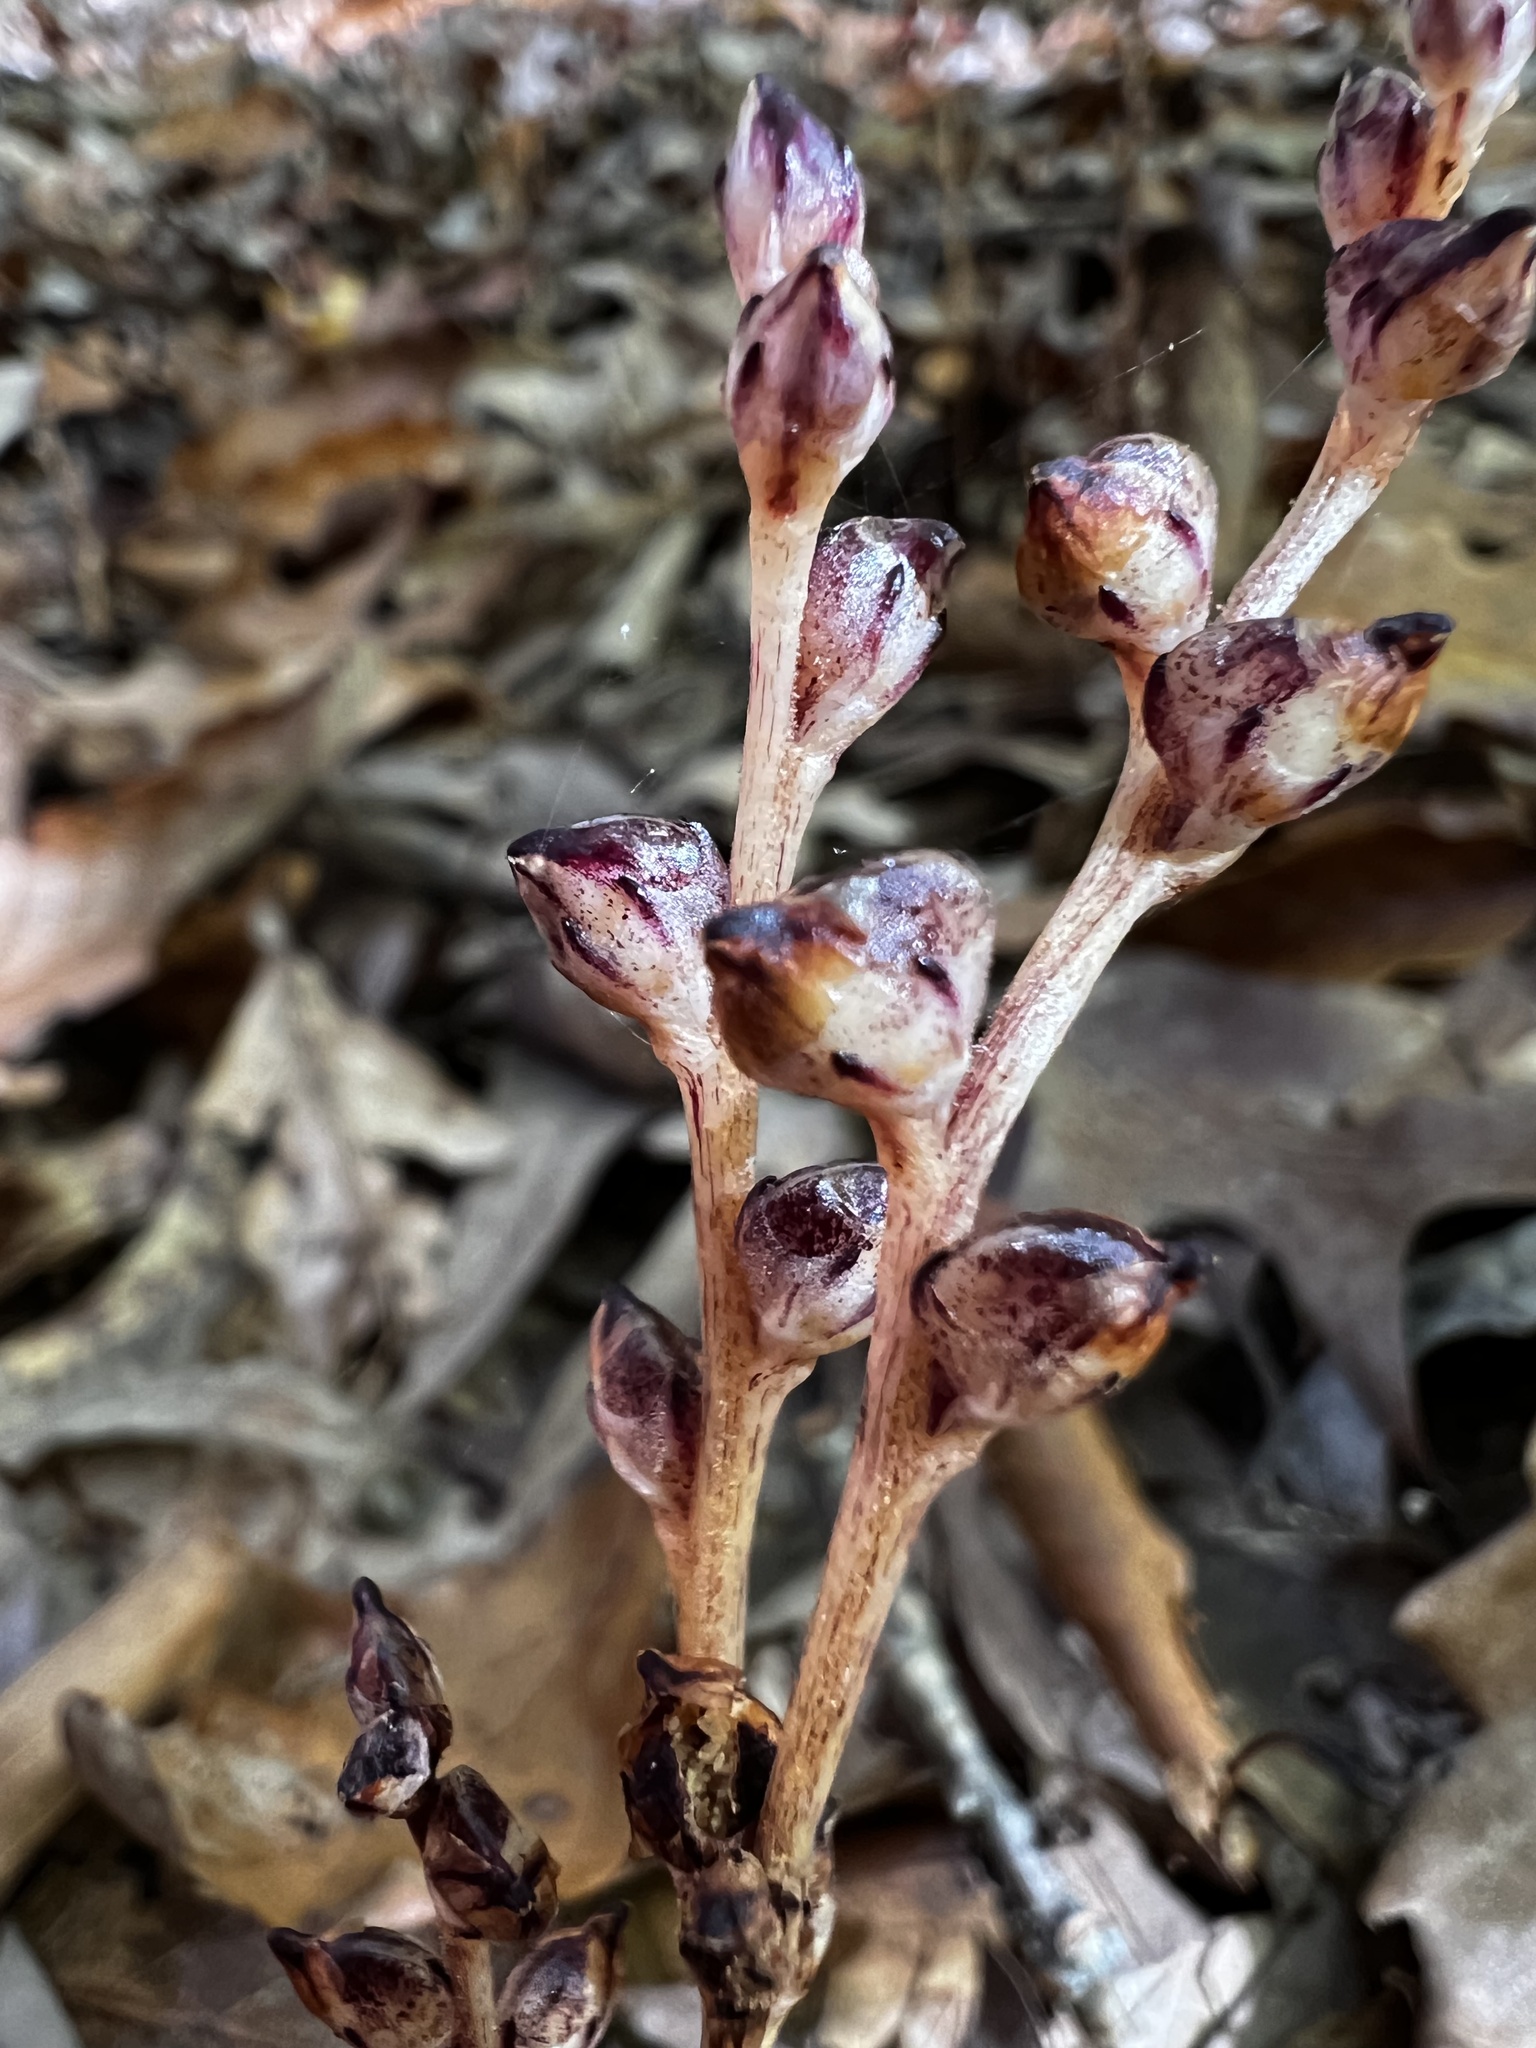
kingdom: Plantae
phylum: Tracheophyta
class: Magnoliopsida
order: Lamiales
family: Orobanchaceae
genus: Epifagus
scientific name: Epifagus virginiana
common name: Beechdrops
